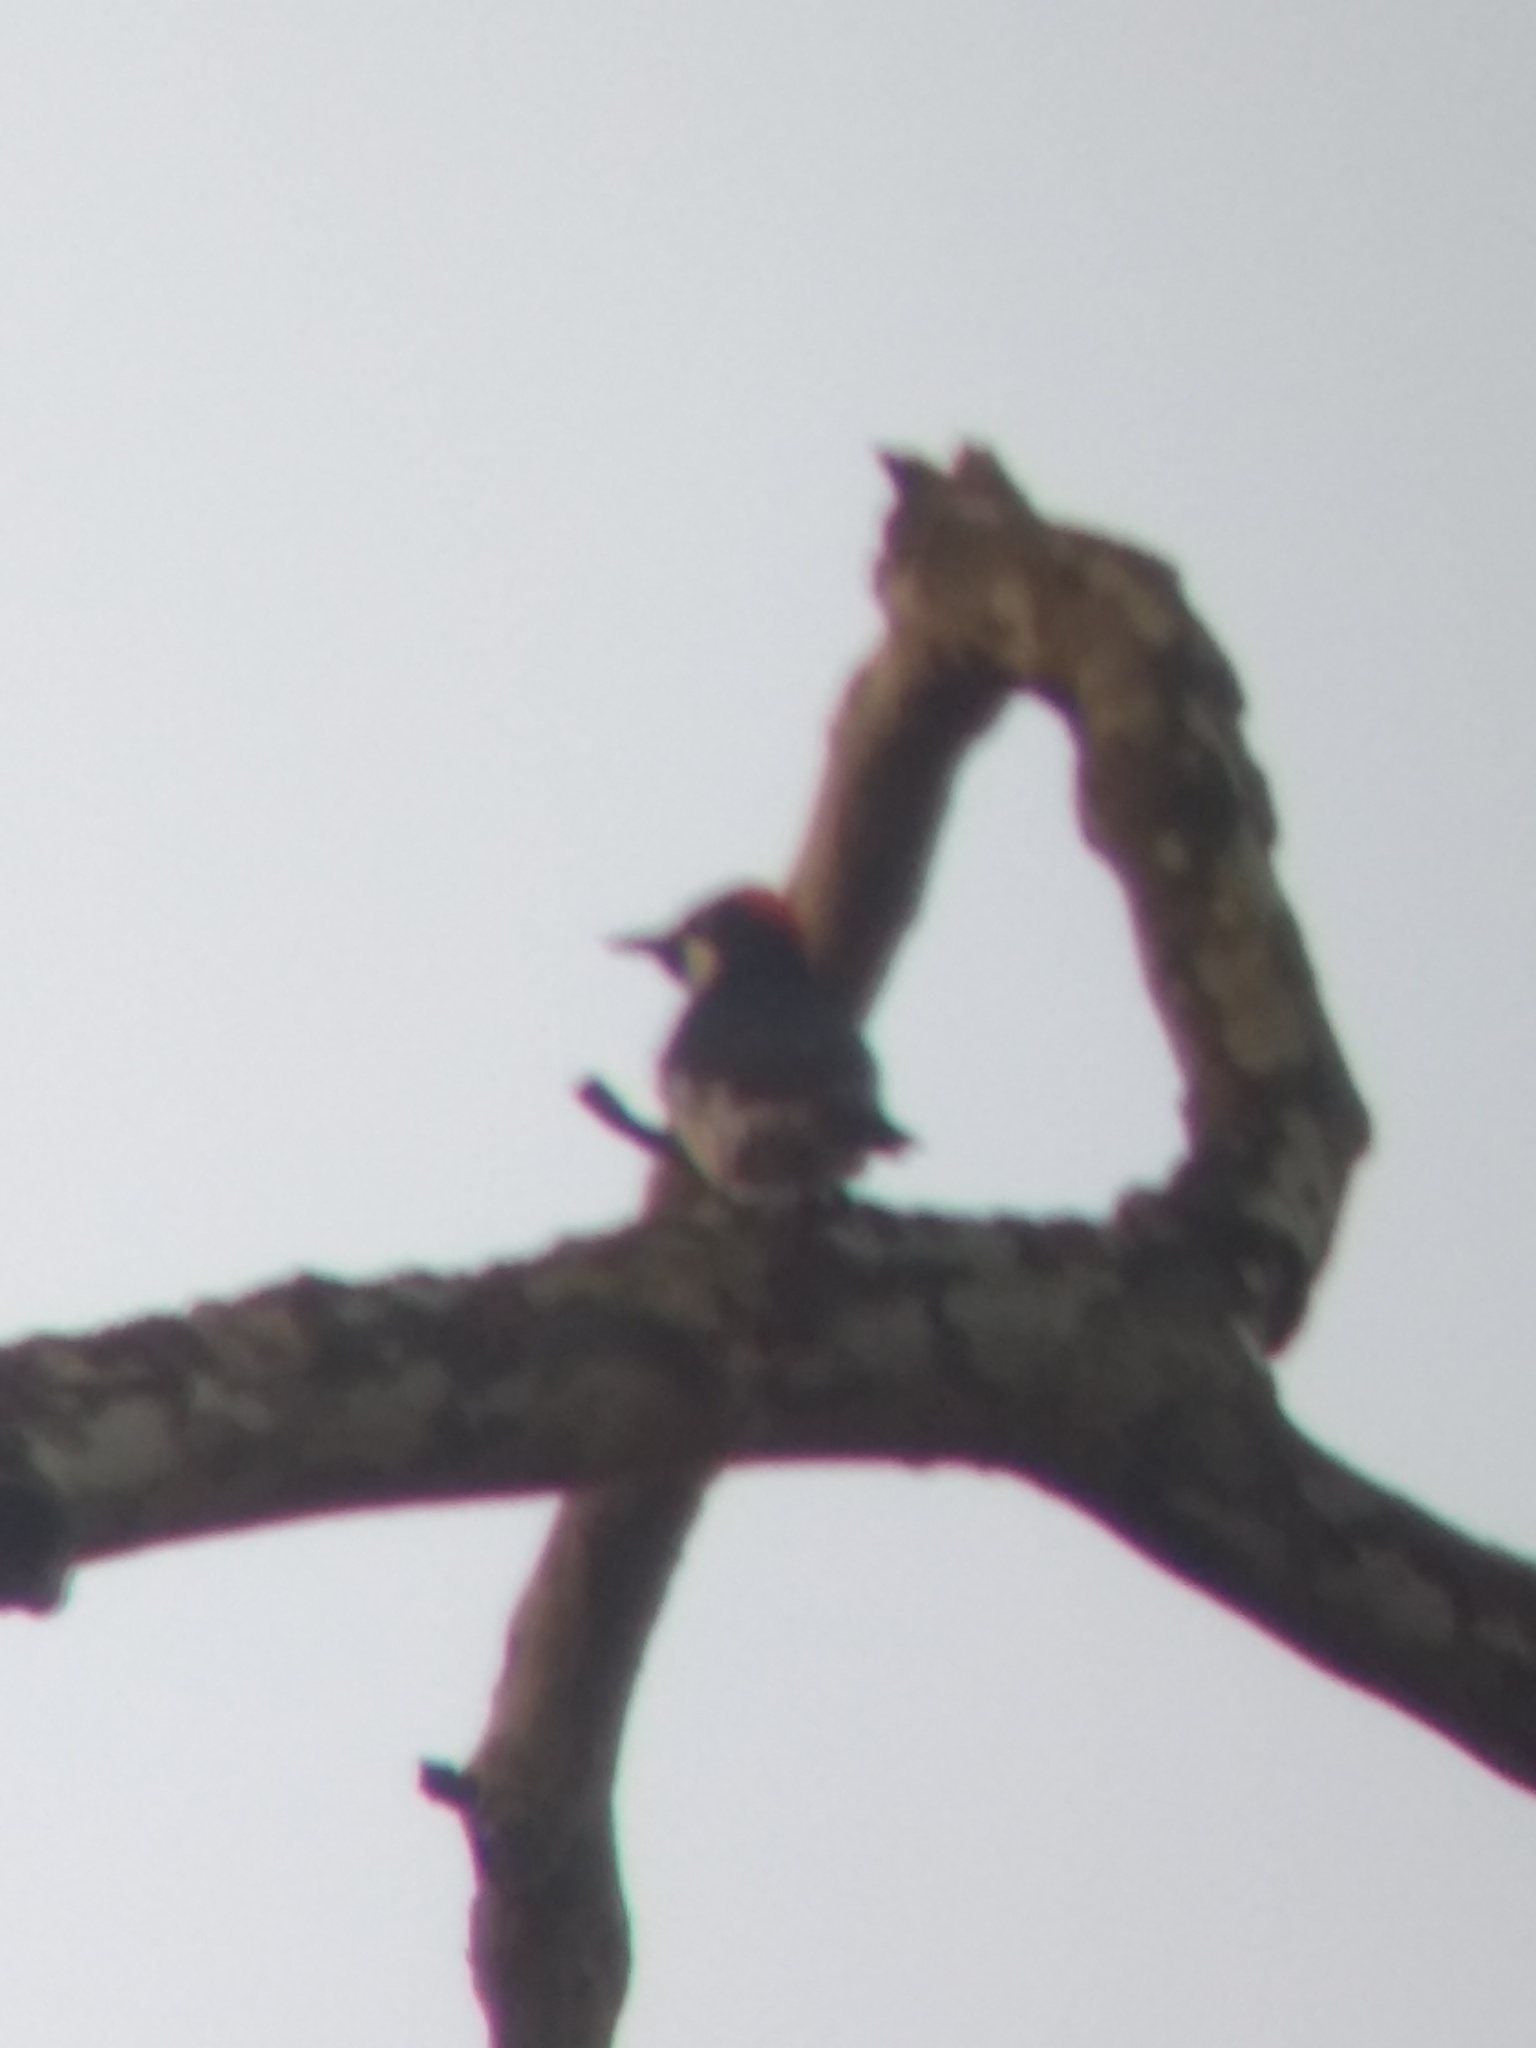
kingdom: Animalia
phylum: Chordata
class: Aves
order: Piciformes
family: Picidae
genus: Melanerpes
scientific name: Melanerpes formicivorus
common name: Acorn woodpecker
